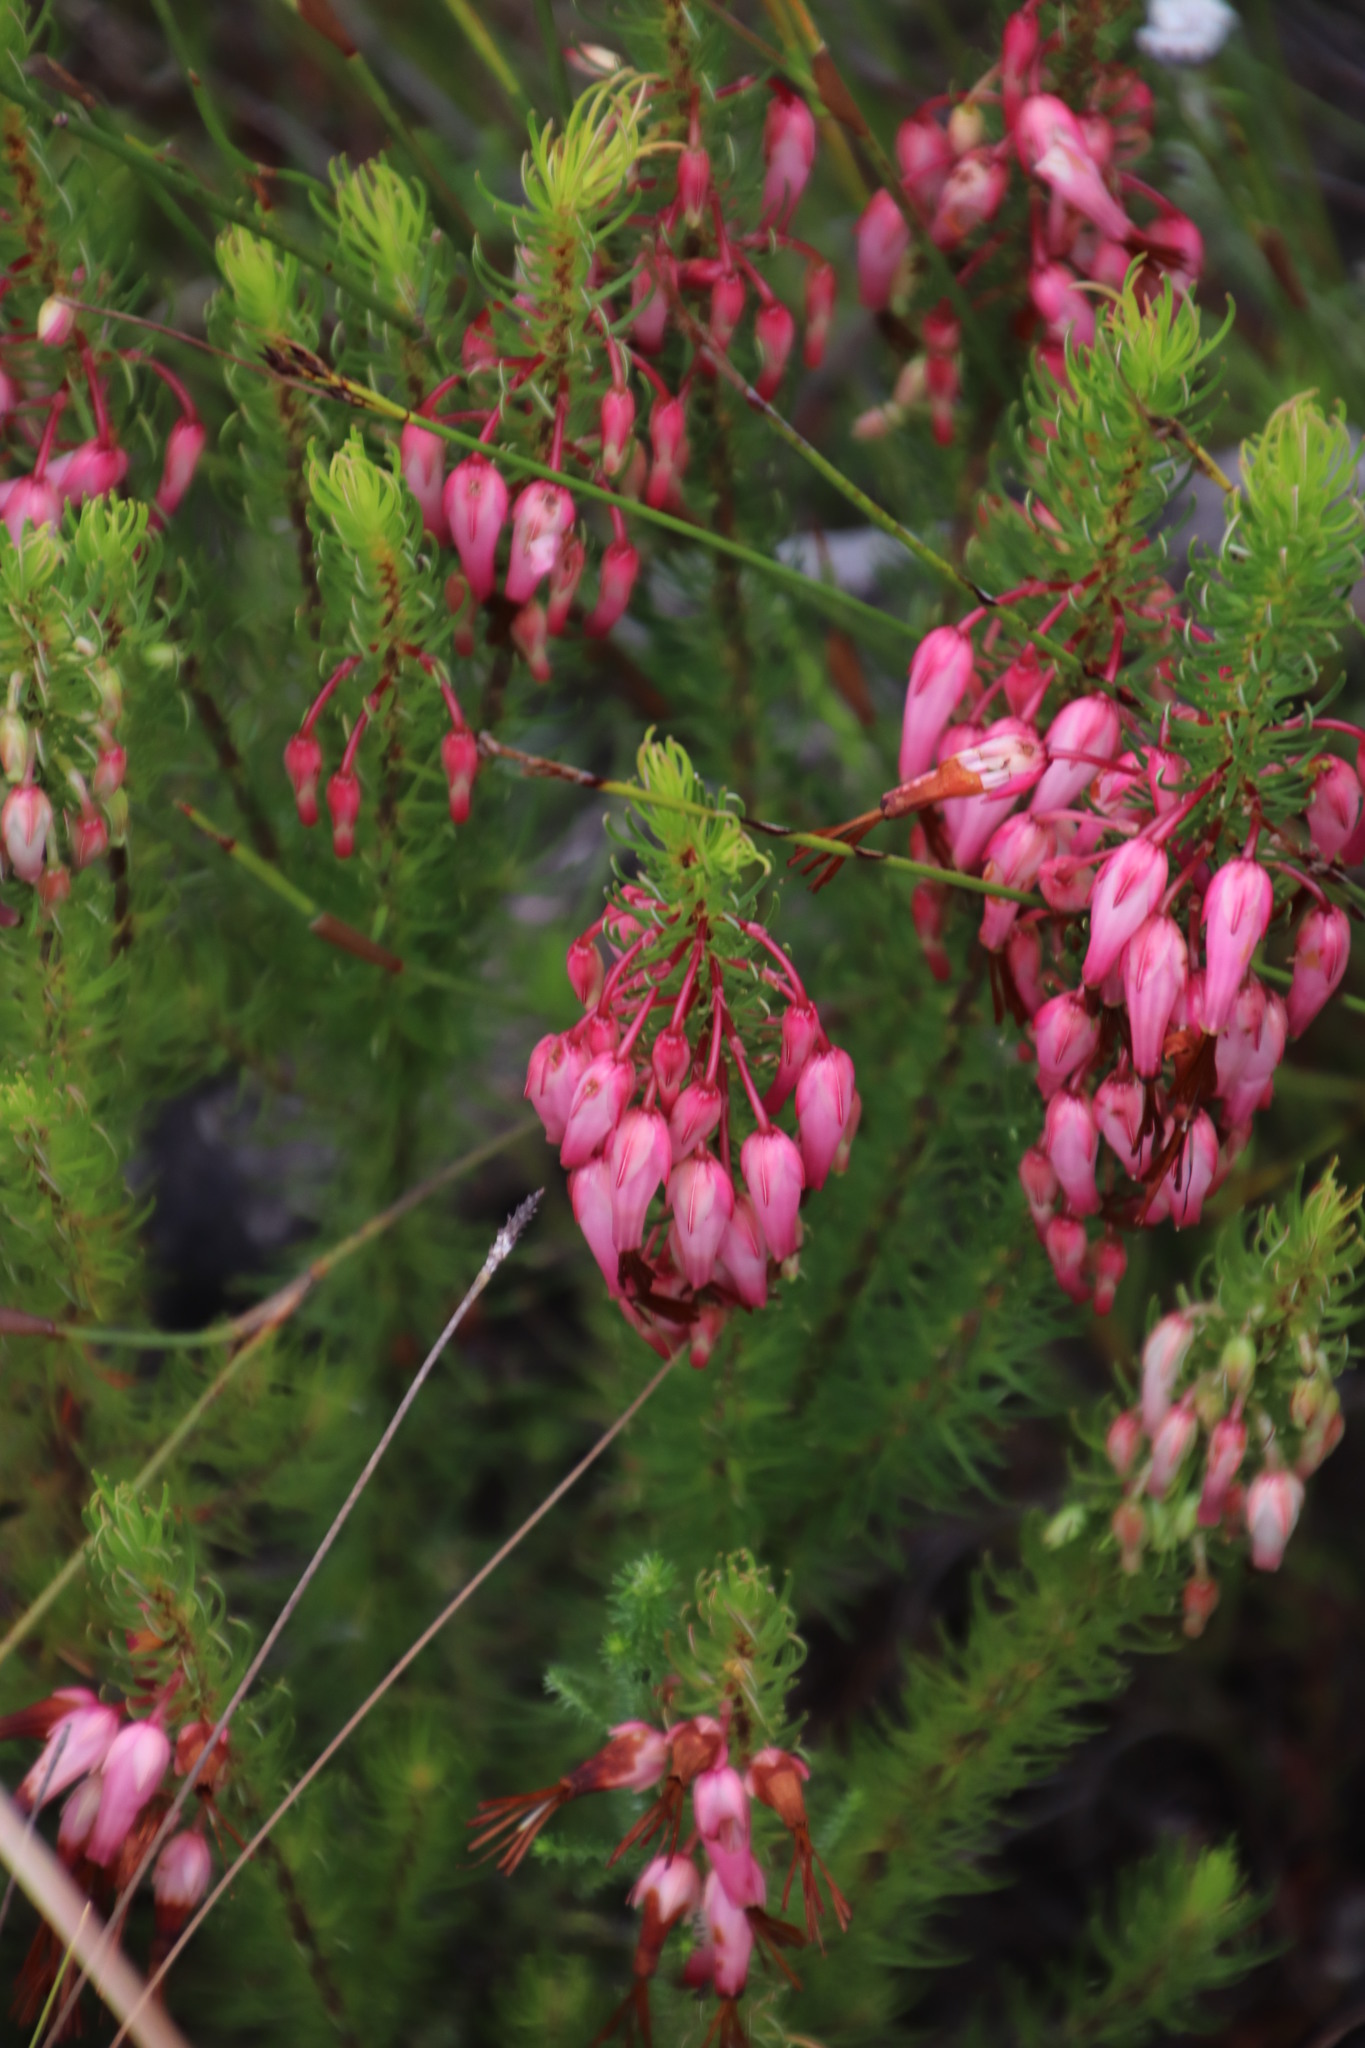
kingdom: Plantae
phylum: Tracheophyta
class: Magnoliopsida
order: Ericales
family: Ericaceae
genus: Erica
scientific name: Erica plukenetii
